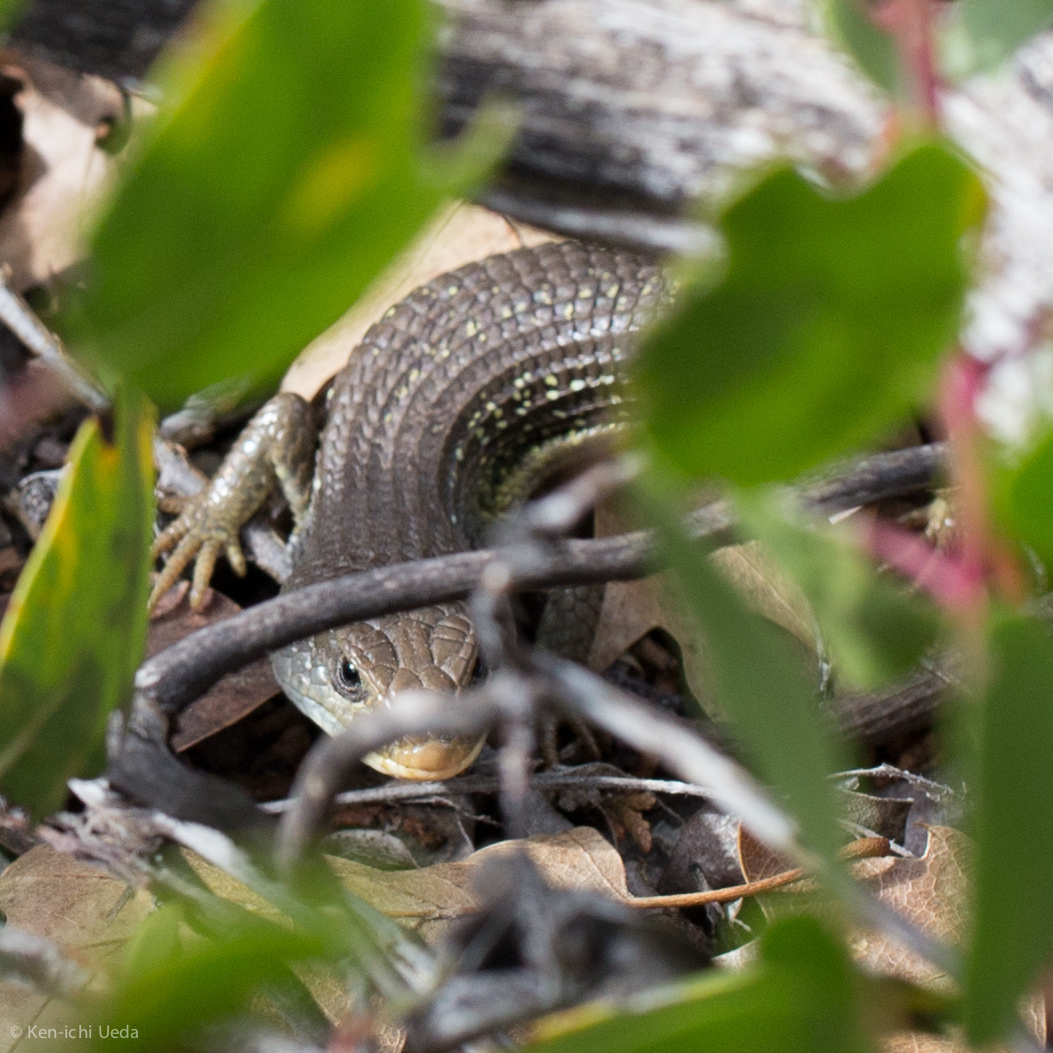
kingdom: Animalia
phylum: Chordata
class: Squamata
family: Anguidae
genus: Elgaria
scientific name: Elgaria coerulea
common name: Northern alligator lizard
